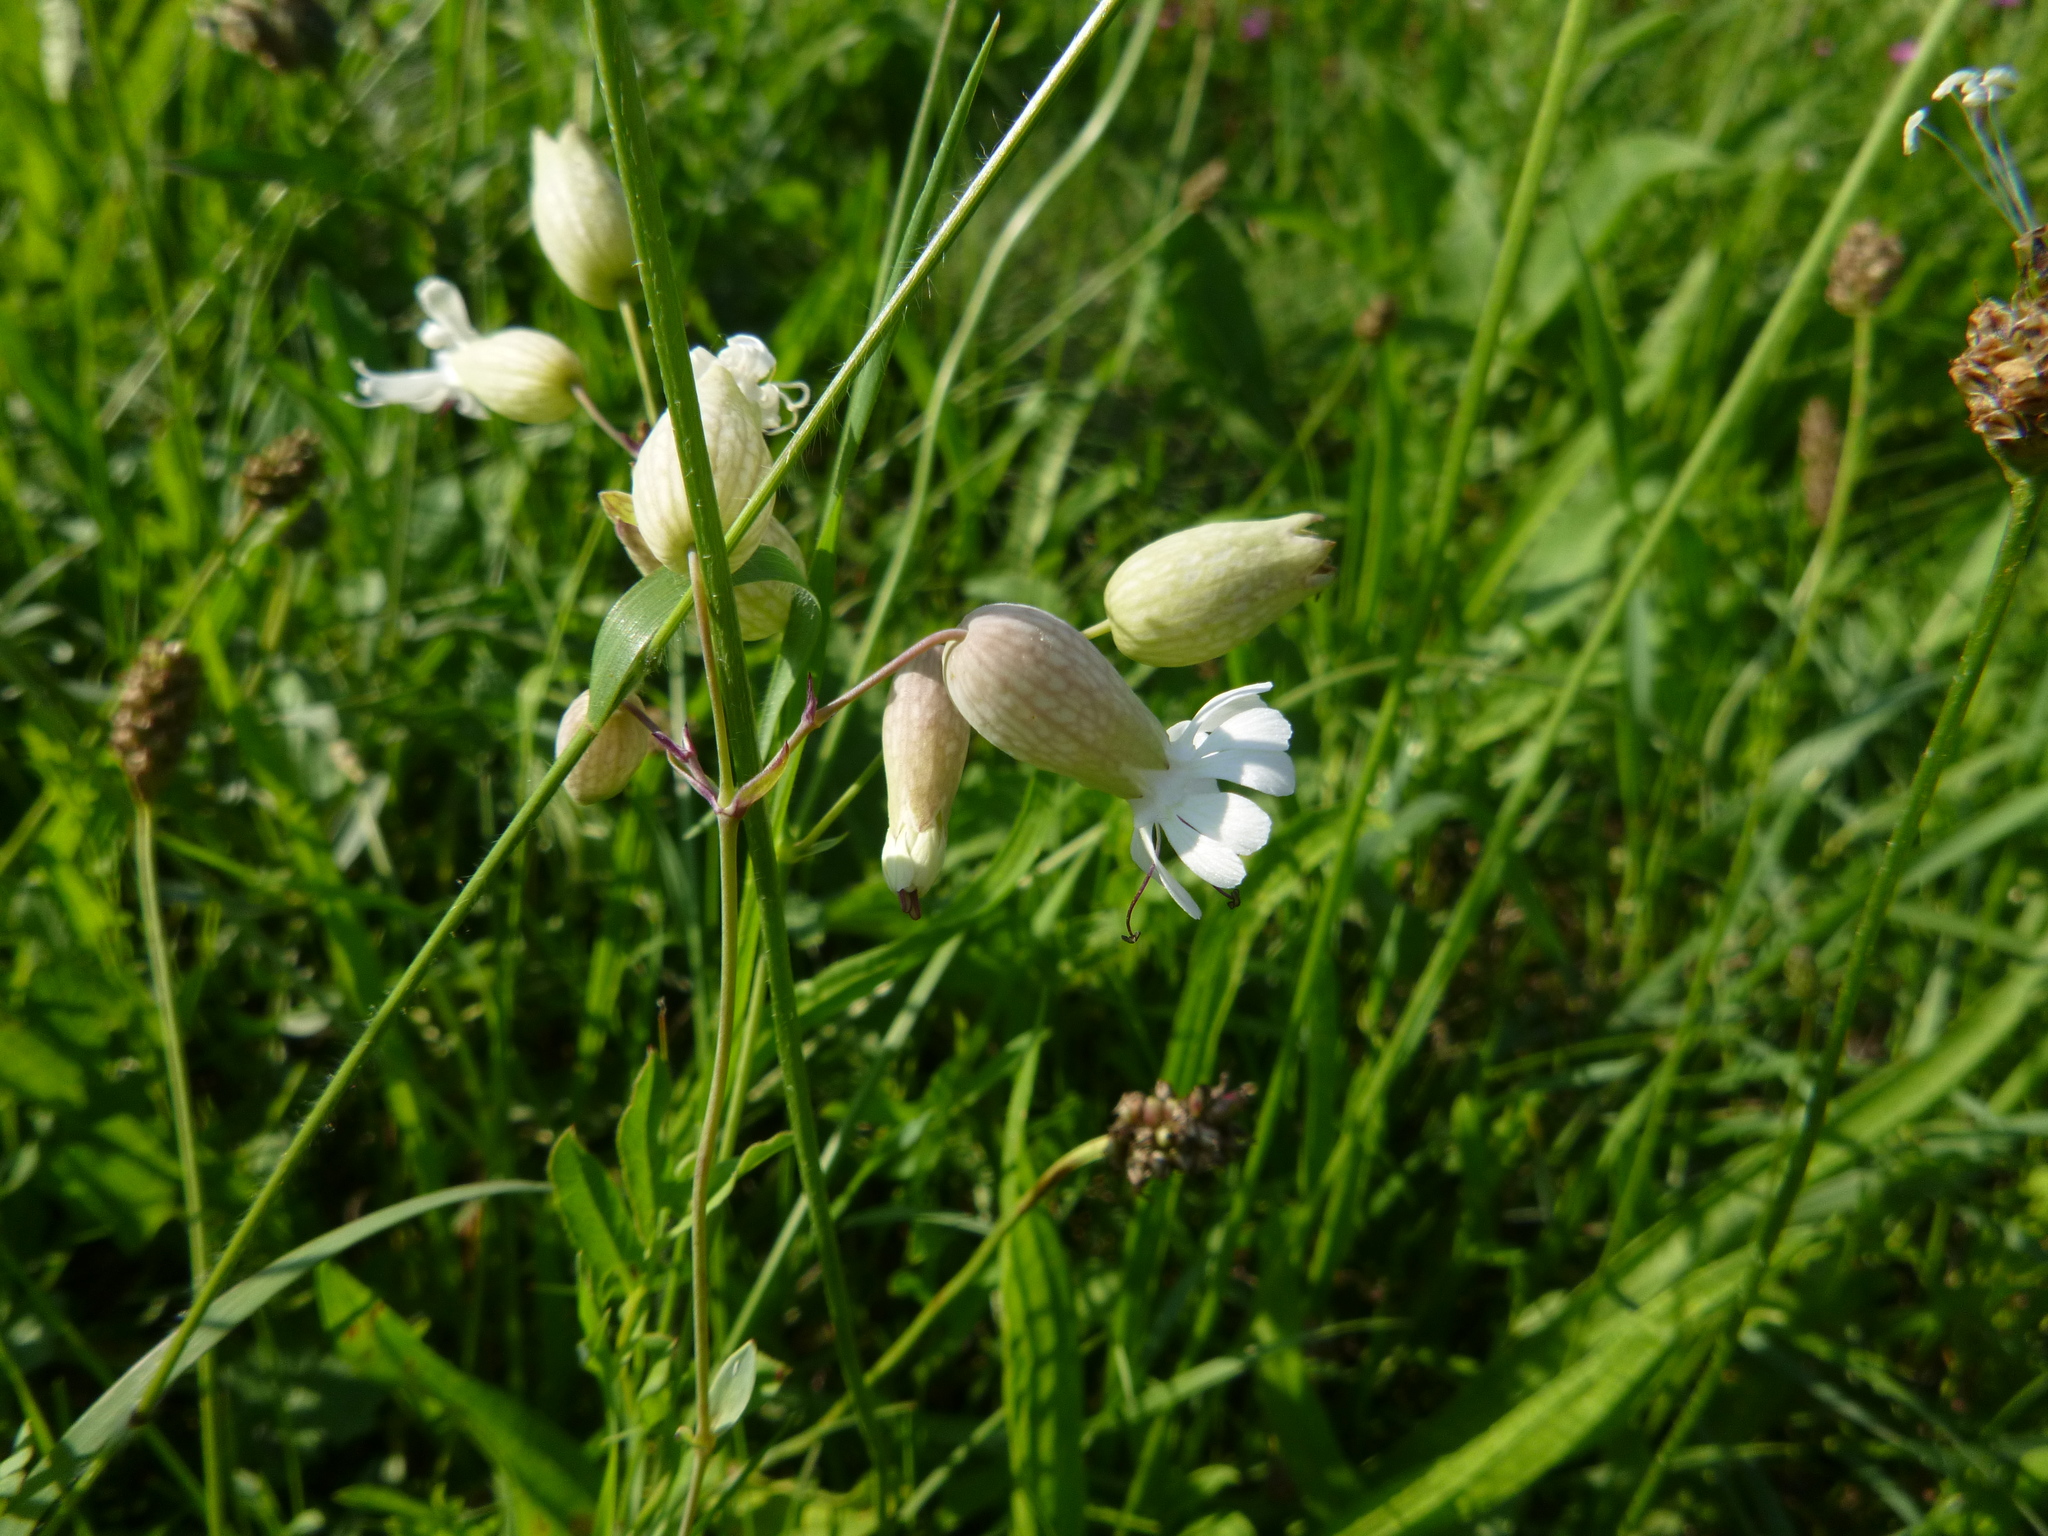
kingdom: Plantae
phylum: Tracheophyta
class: Magnoliopsida
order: Caryophyllales
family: Caryophyllaceae
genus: Silene
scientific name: Silene vulgaris
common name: Bladder campion
